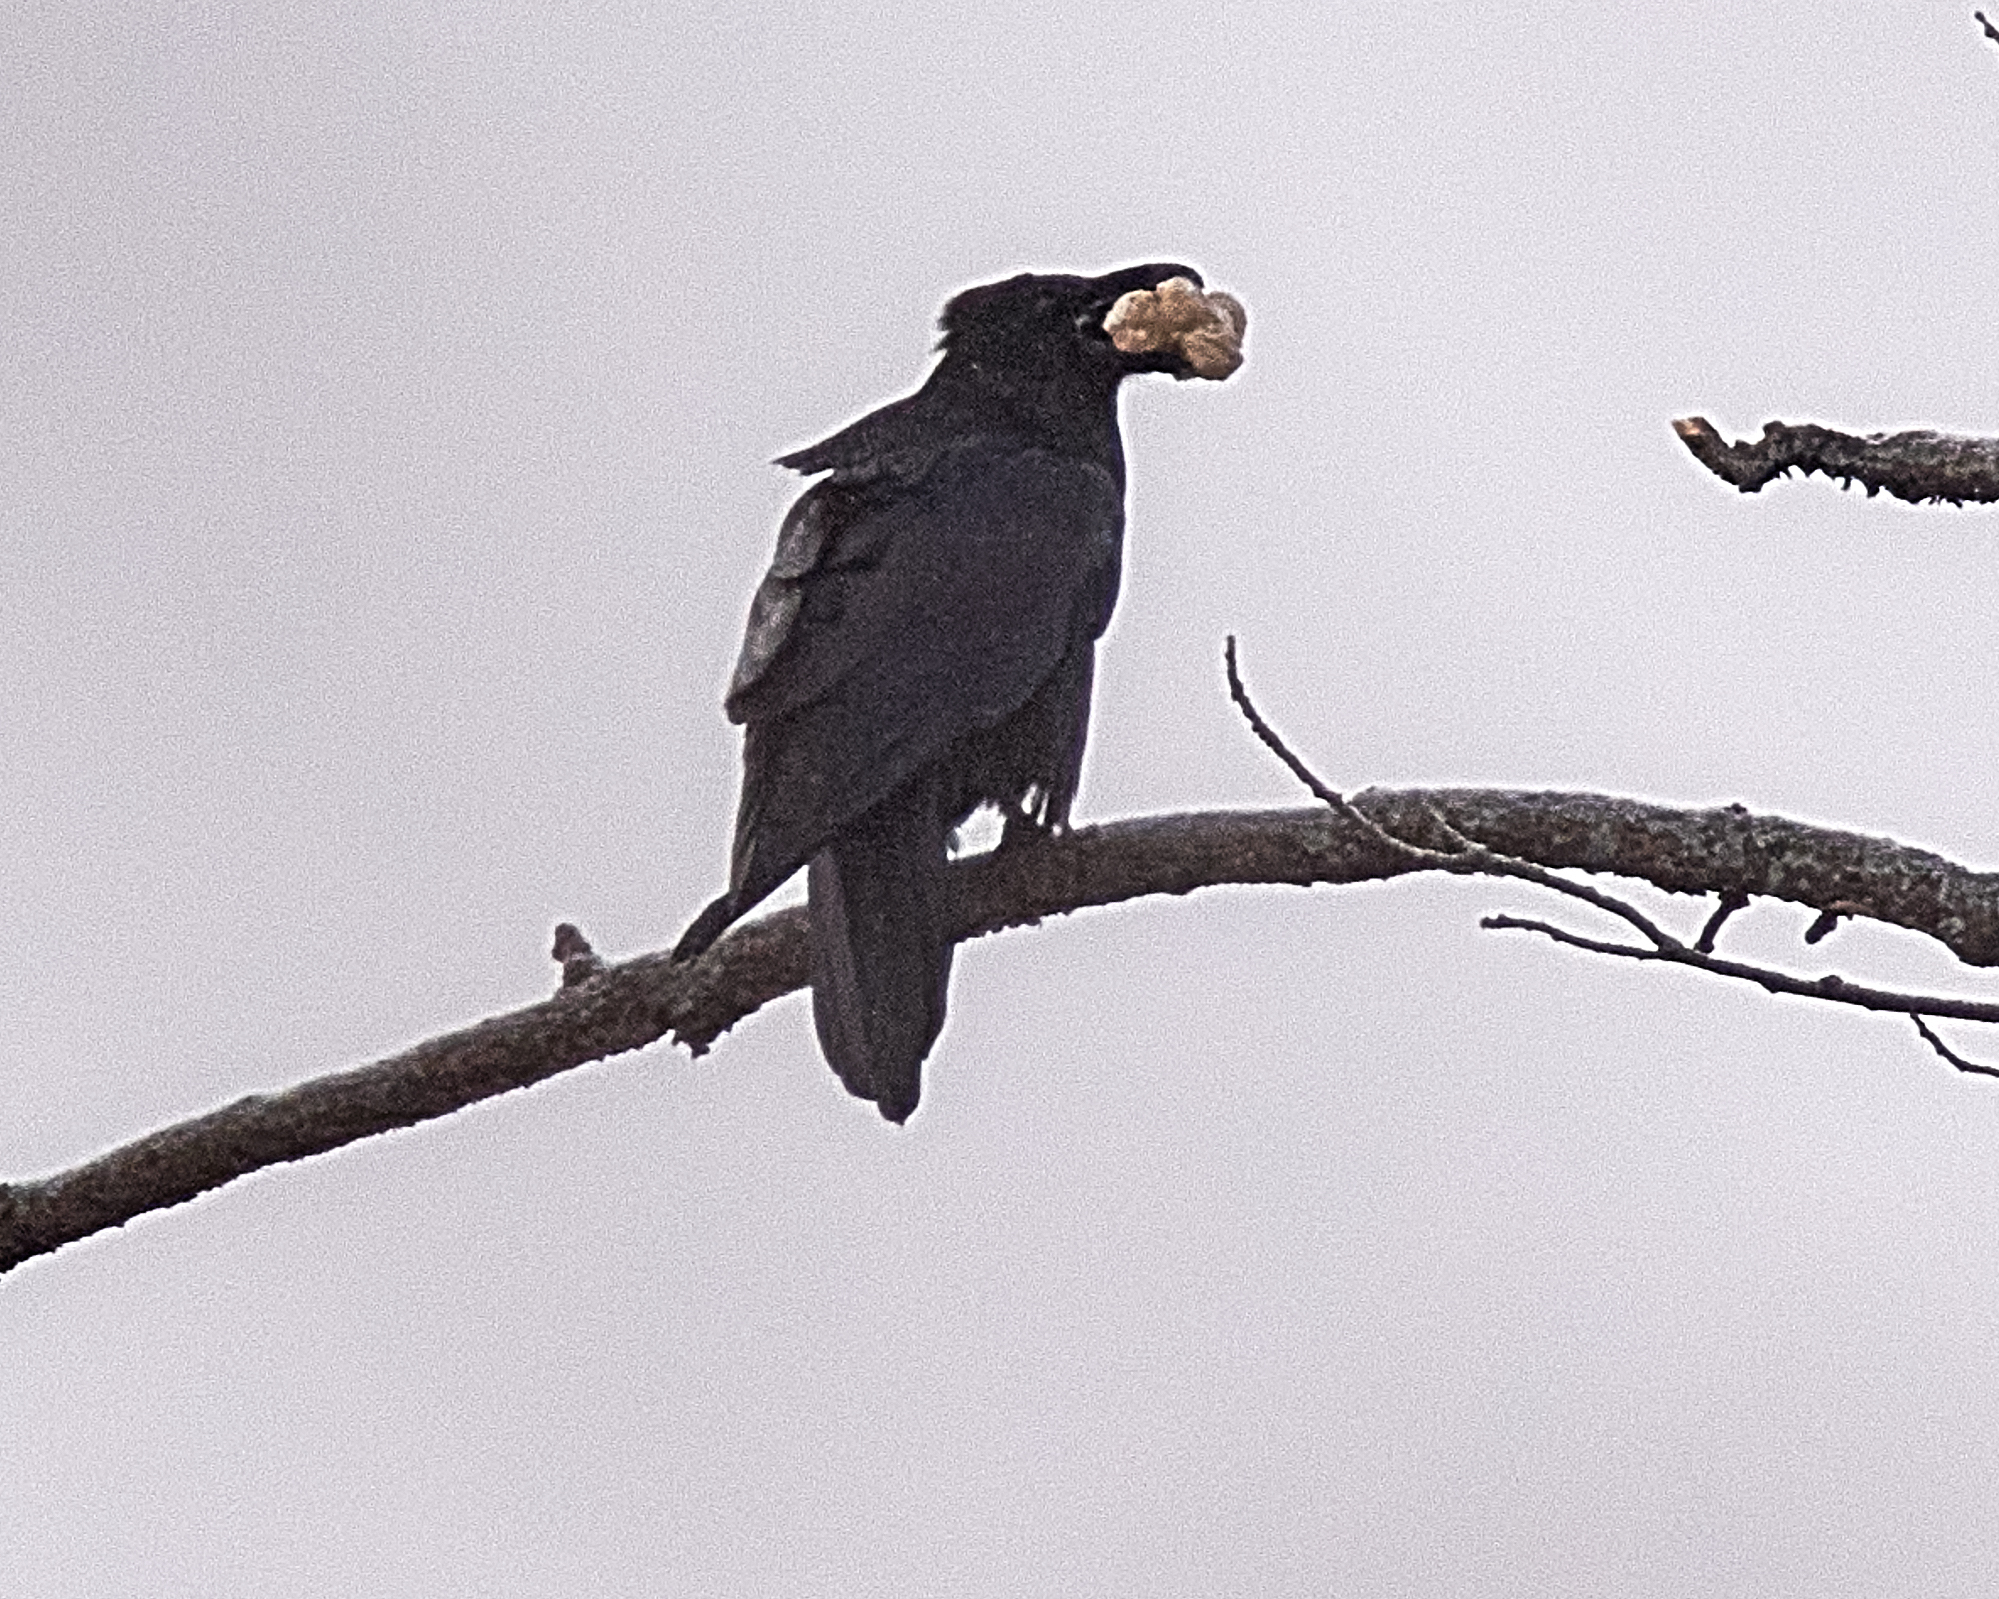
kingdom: Animalia
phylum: Chordata
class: Aves
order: Passeriformes
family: Corvidae
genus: Corvus
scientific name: Corvus corax
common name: Common raven
